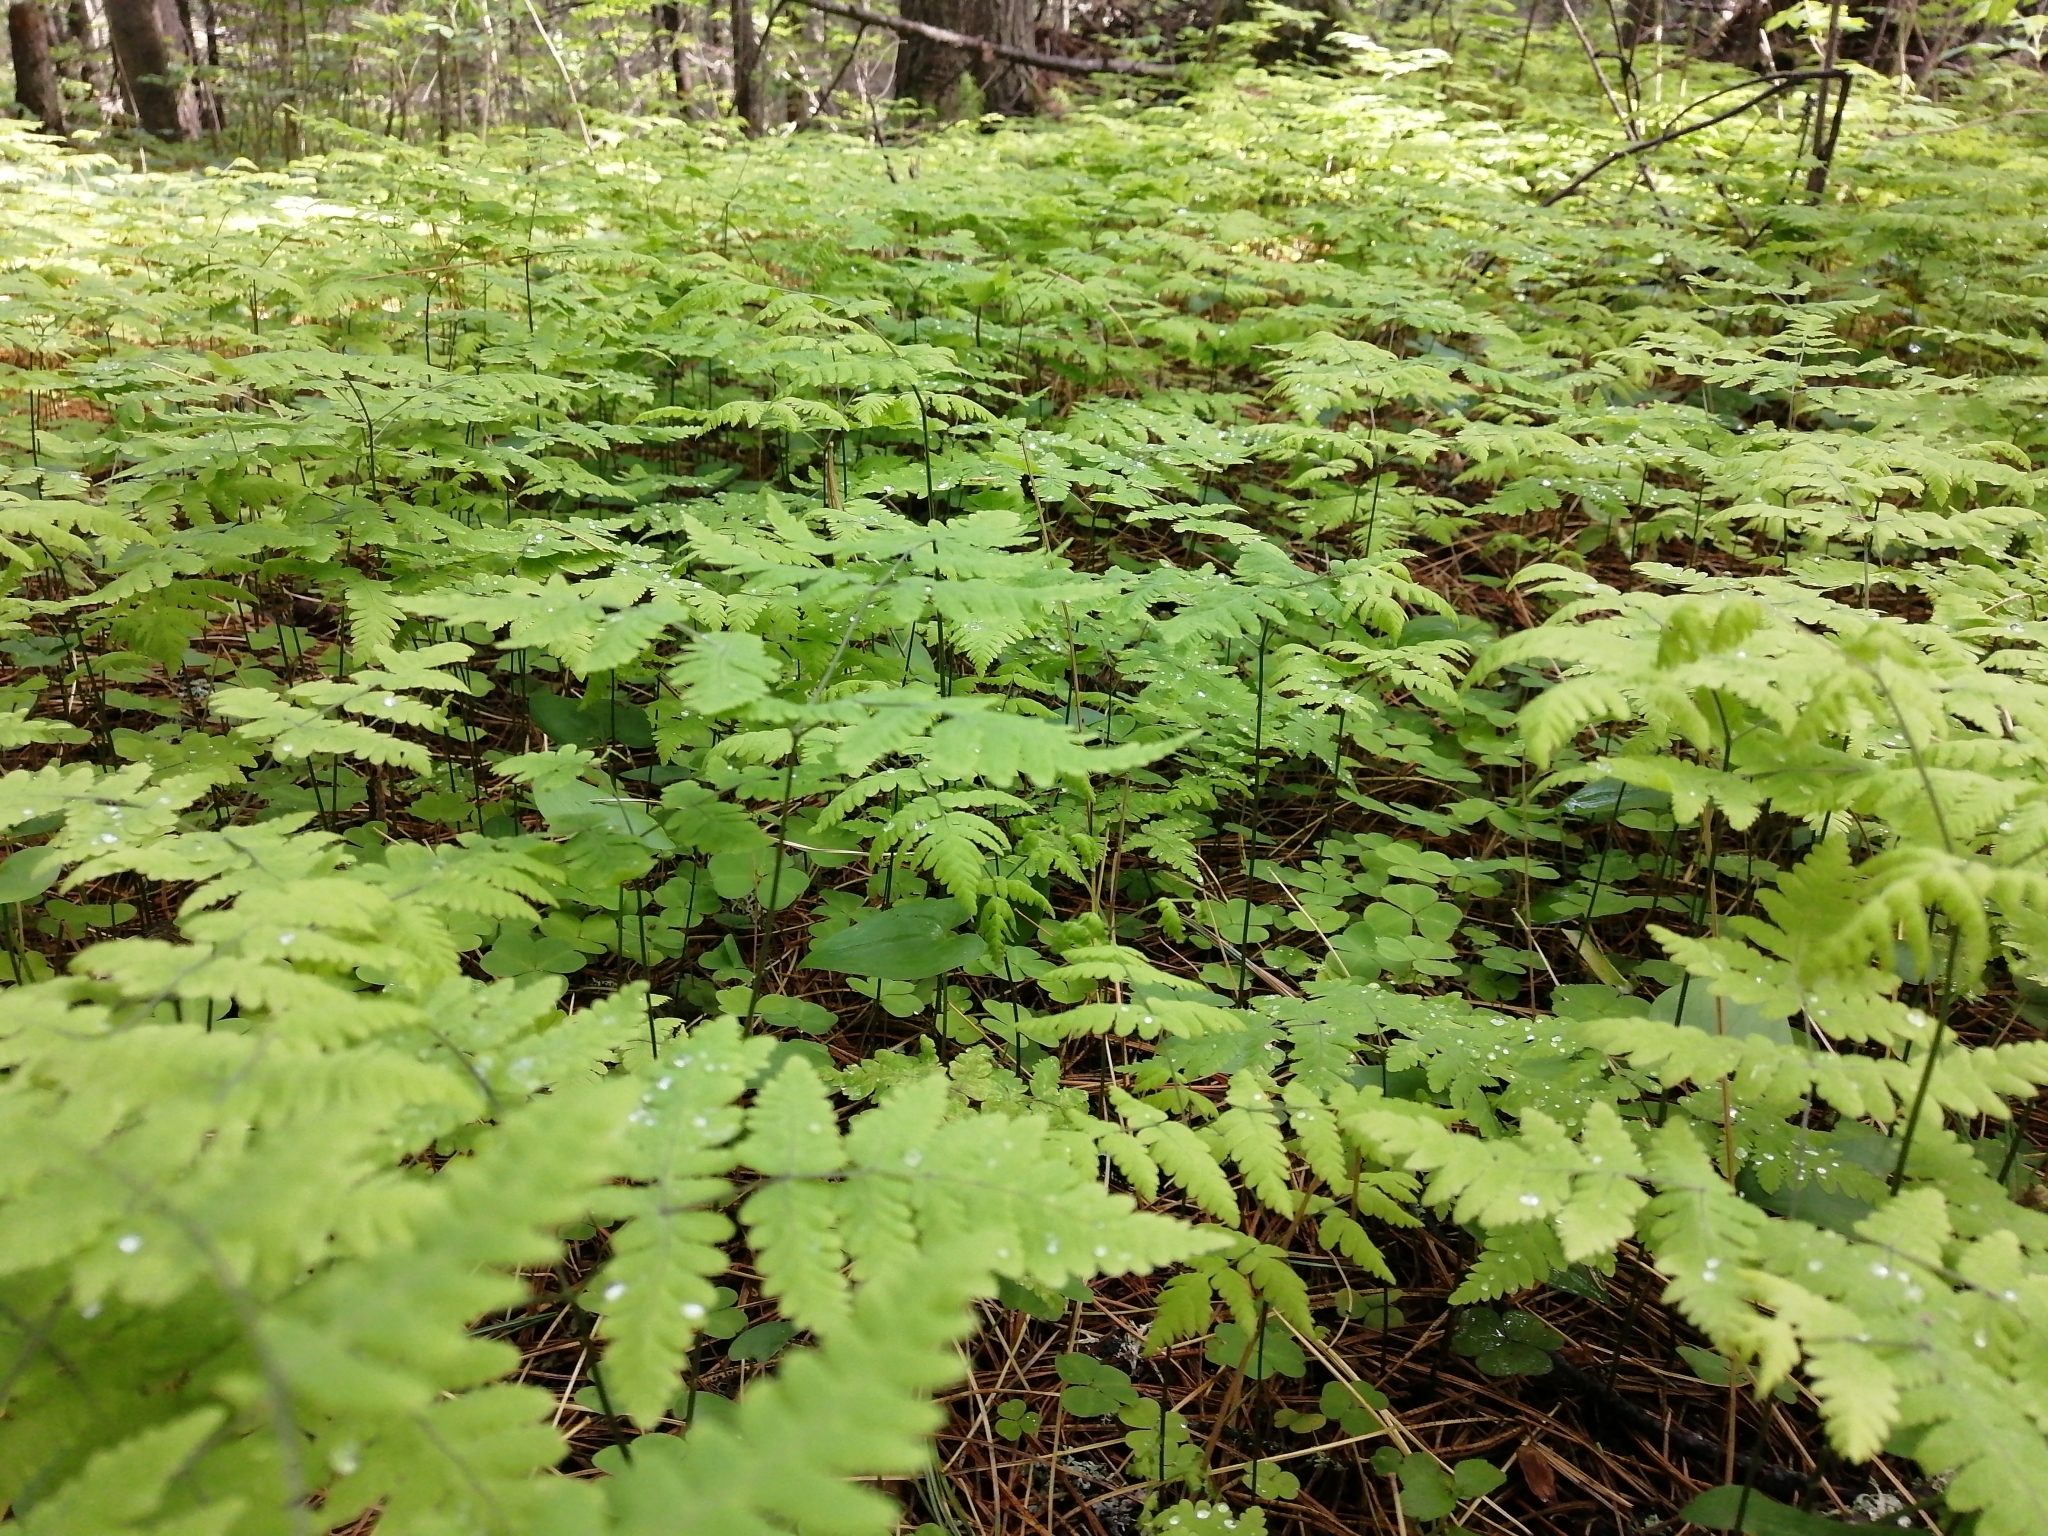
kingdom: Plantae
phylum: Tracheophyta
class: Polypodiopsida
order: Polypodiales
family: Cystopteridaceae
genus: Gymnocarpium
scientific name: Gymnocarpium dryopteris
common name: Oak fern
